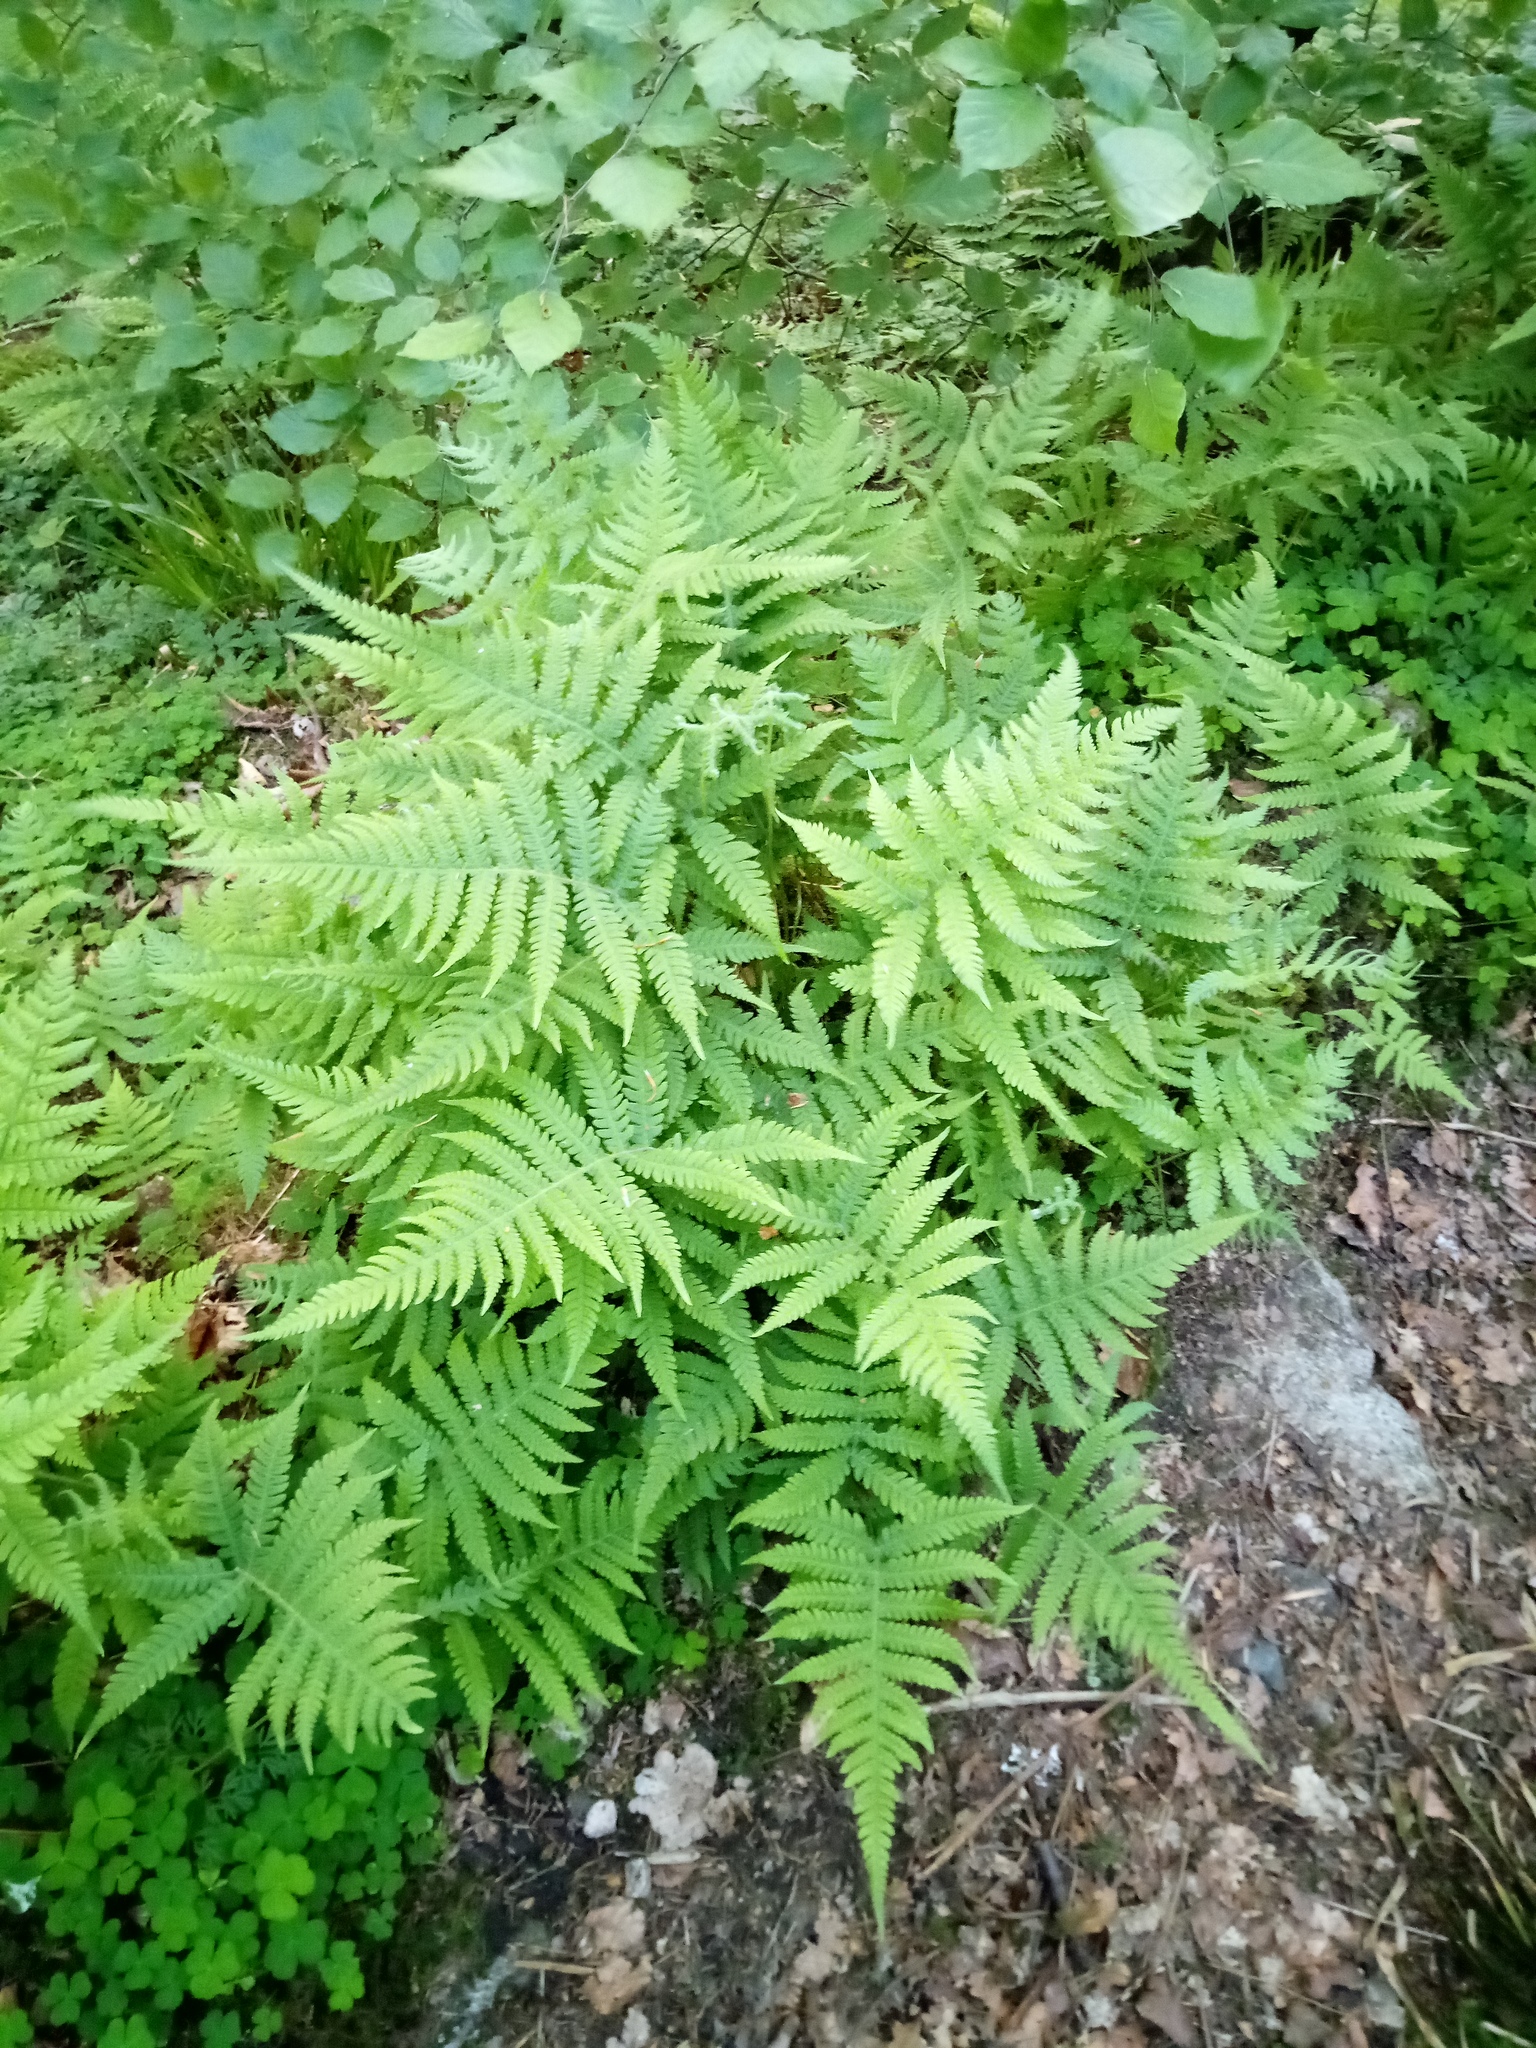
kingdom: Plantae
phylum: Tracheophyta
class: Polypodiopsida
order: Polypodiales
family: Thelypteridaceae
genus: Phegopteris
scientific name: Phegopteris connectilis
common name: Beech fern
